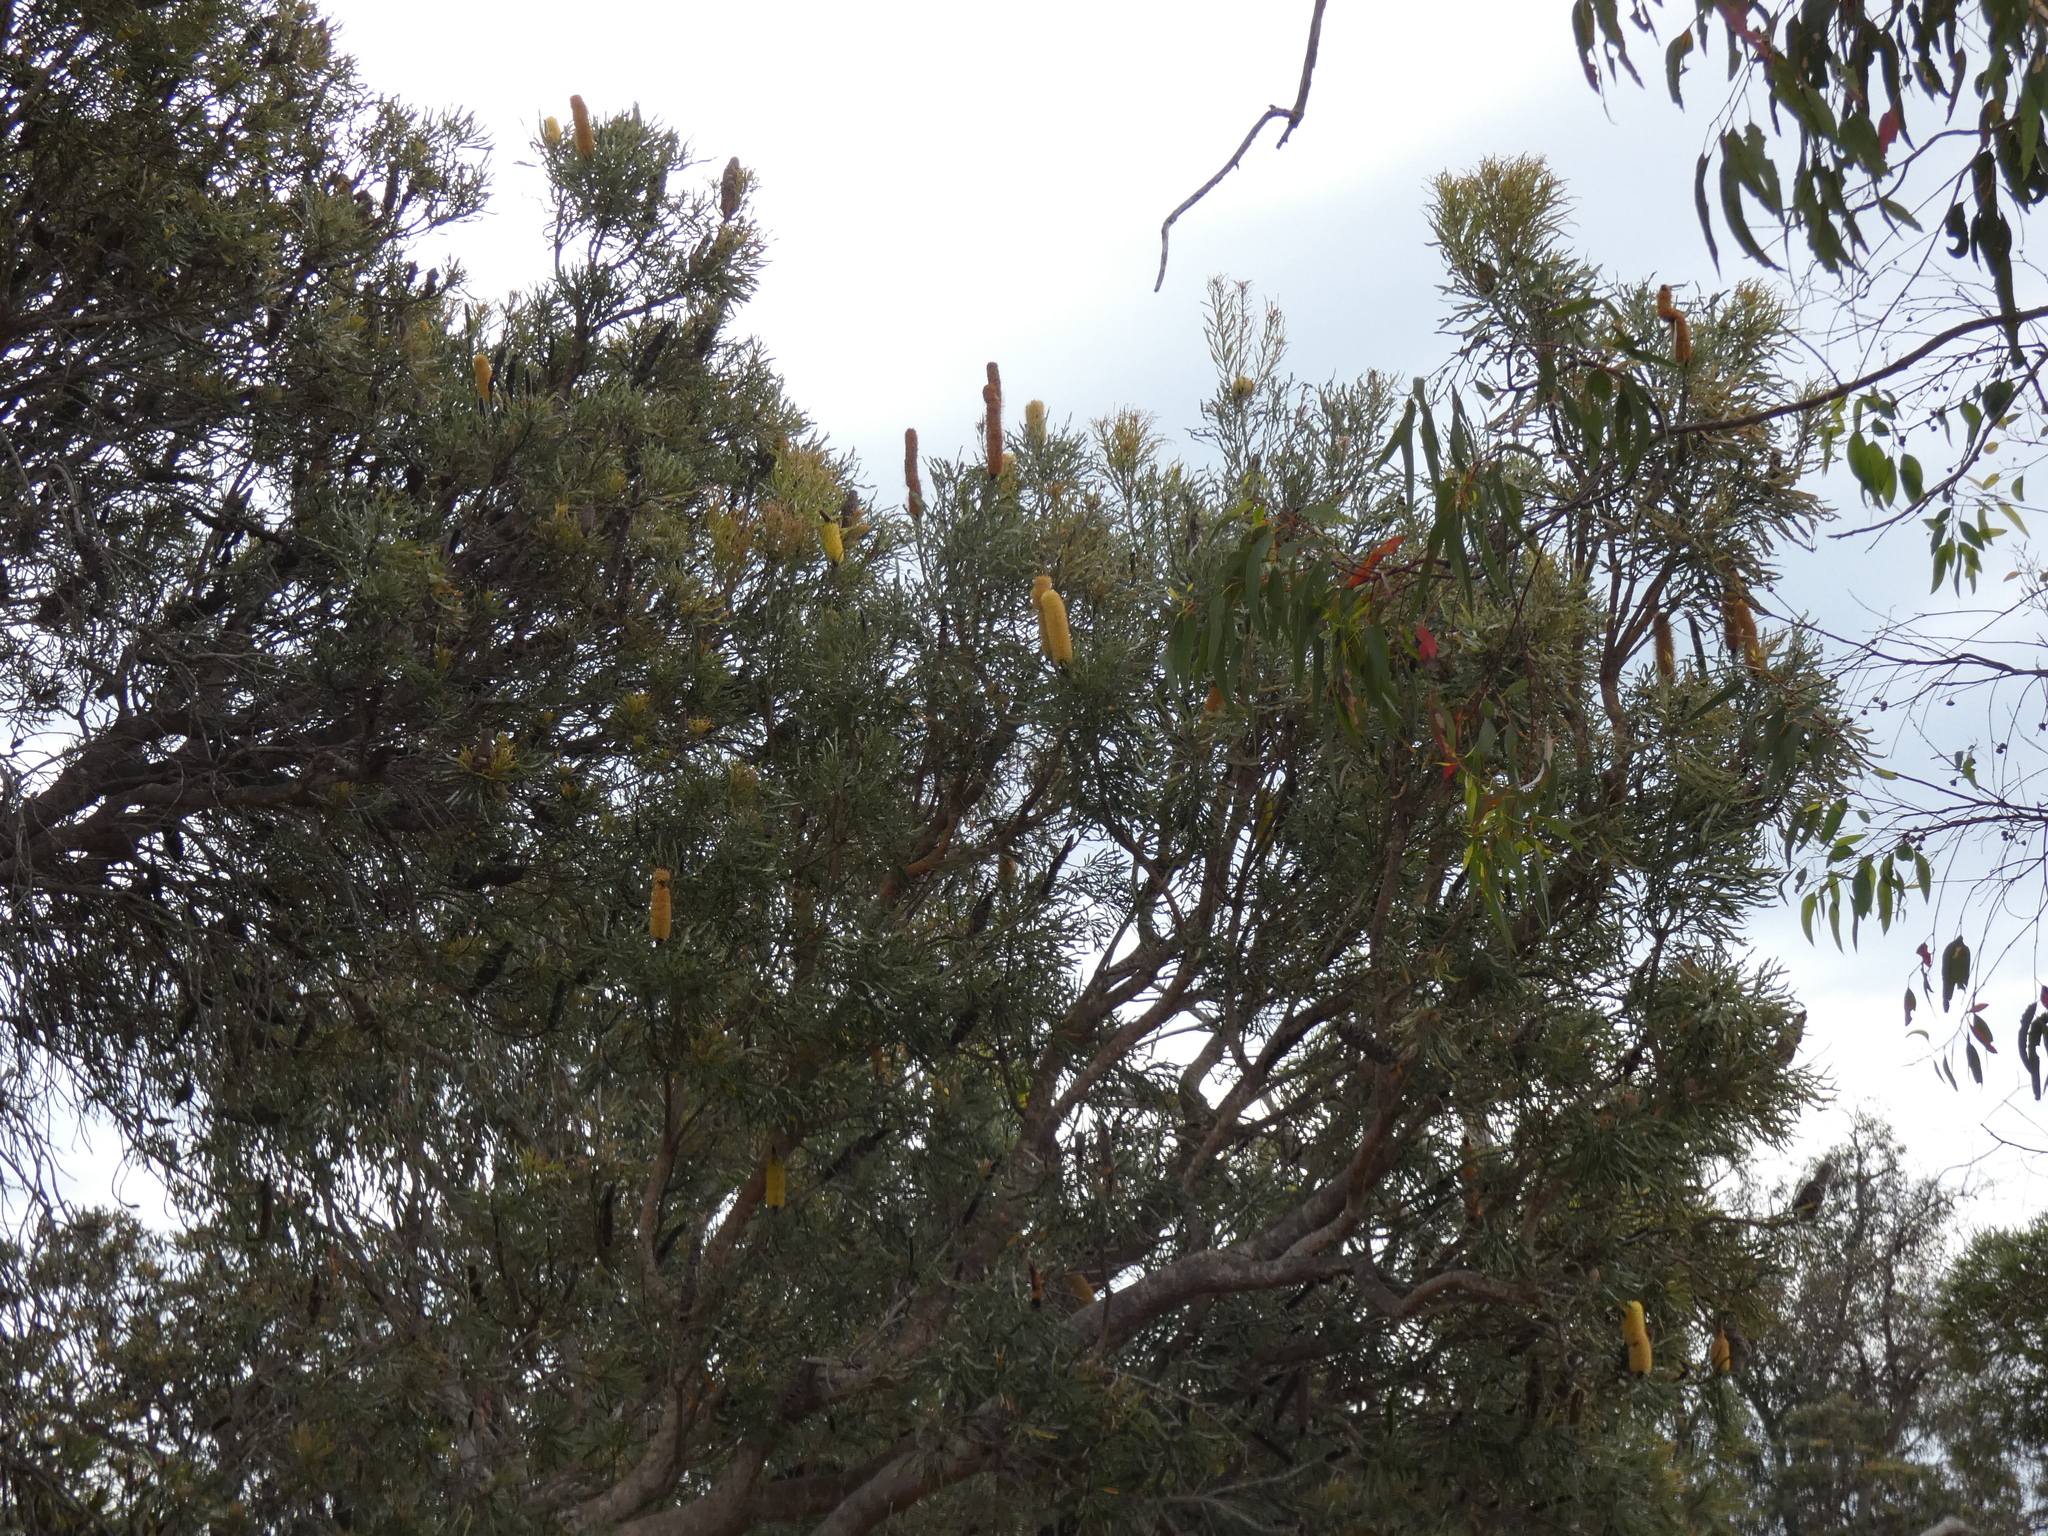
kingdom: Plantae
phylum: Tracheophyta
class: Magnoliopsida
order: Proteales
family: Proteaceae
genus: Banksia
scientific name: Banksia attenuata
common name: Coast banksia
